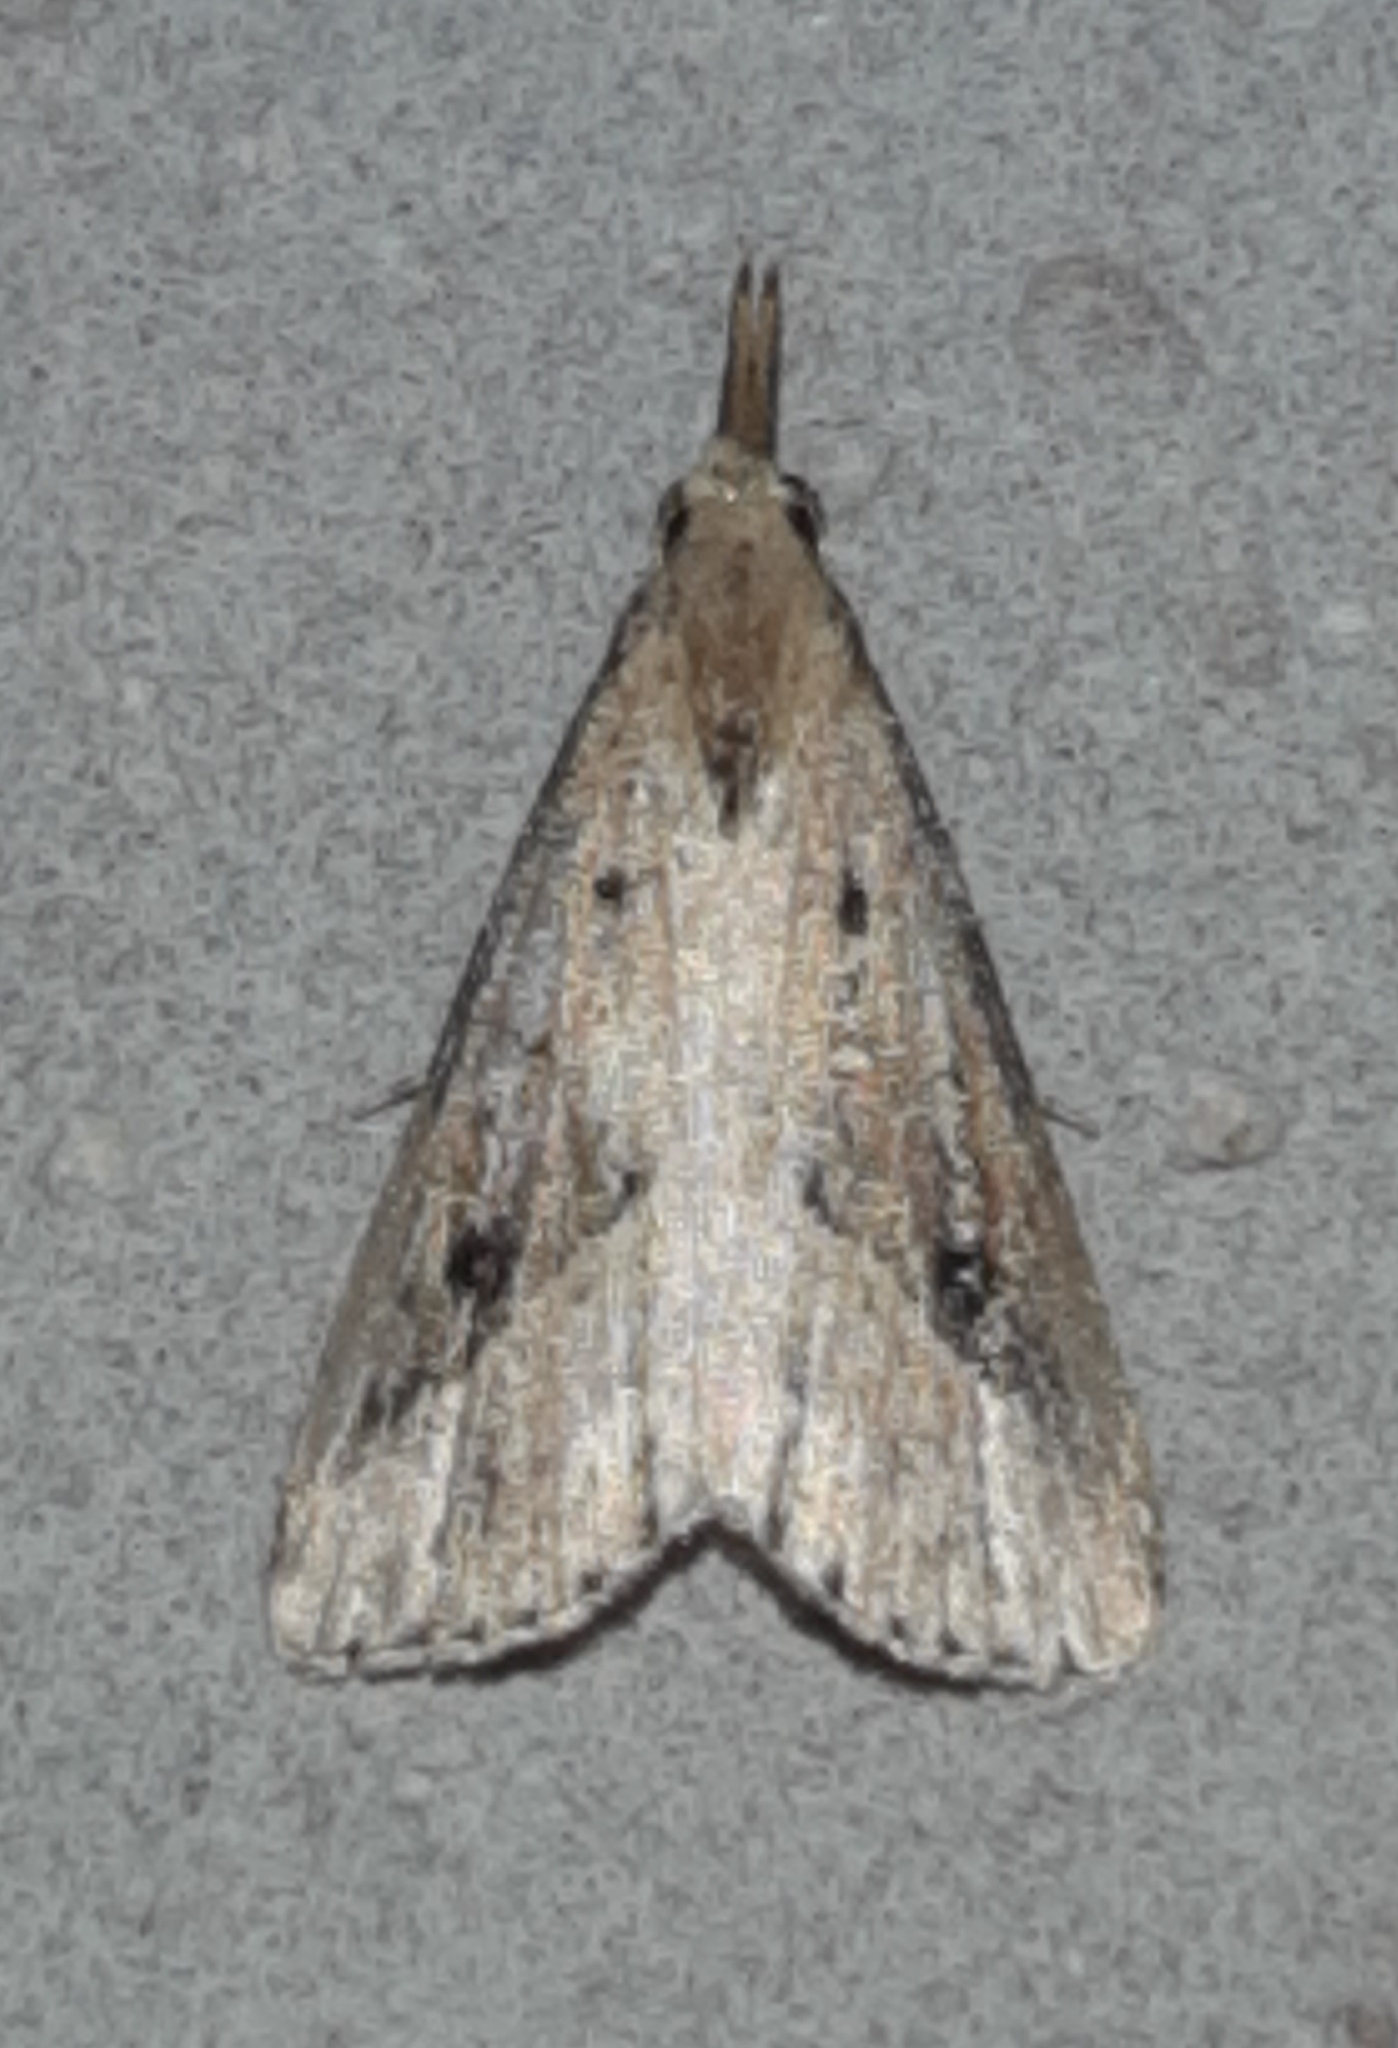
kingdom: Animalia
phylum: Arthropoda
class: Insecta
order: Lepidoptera
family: Erebidae
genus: Schrankia
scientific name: Schrankia
